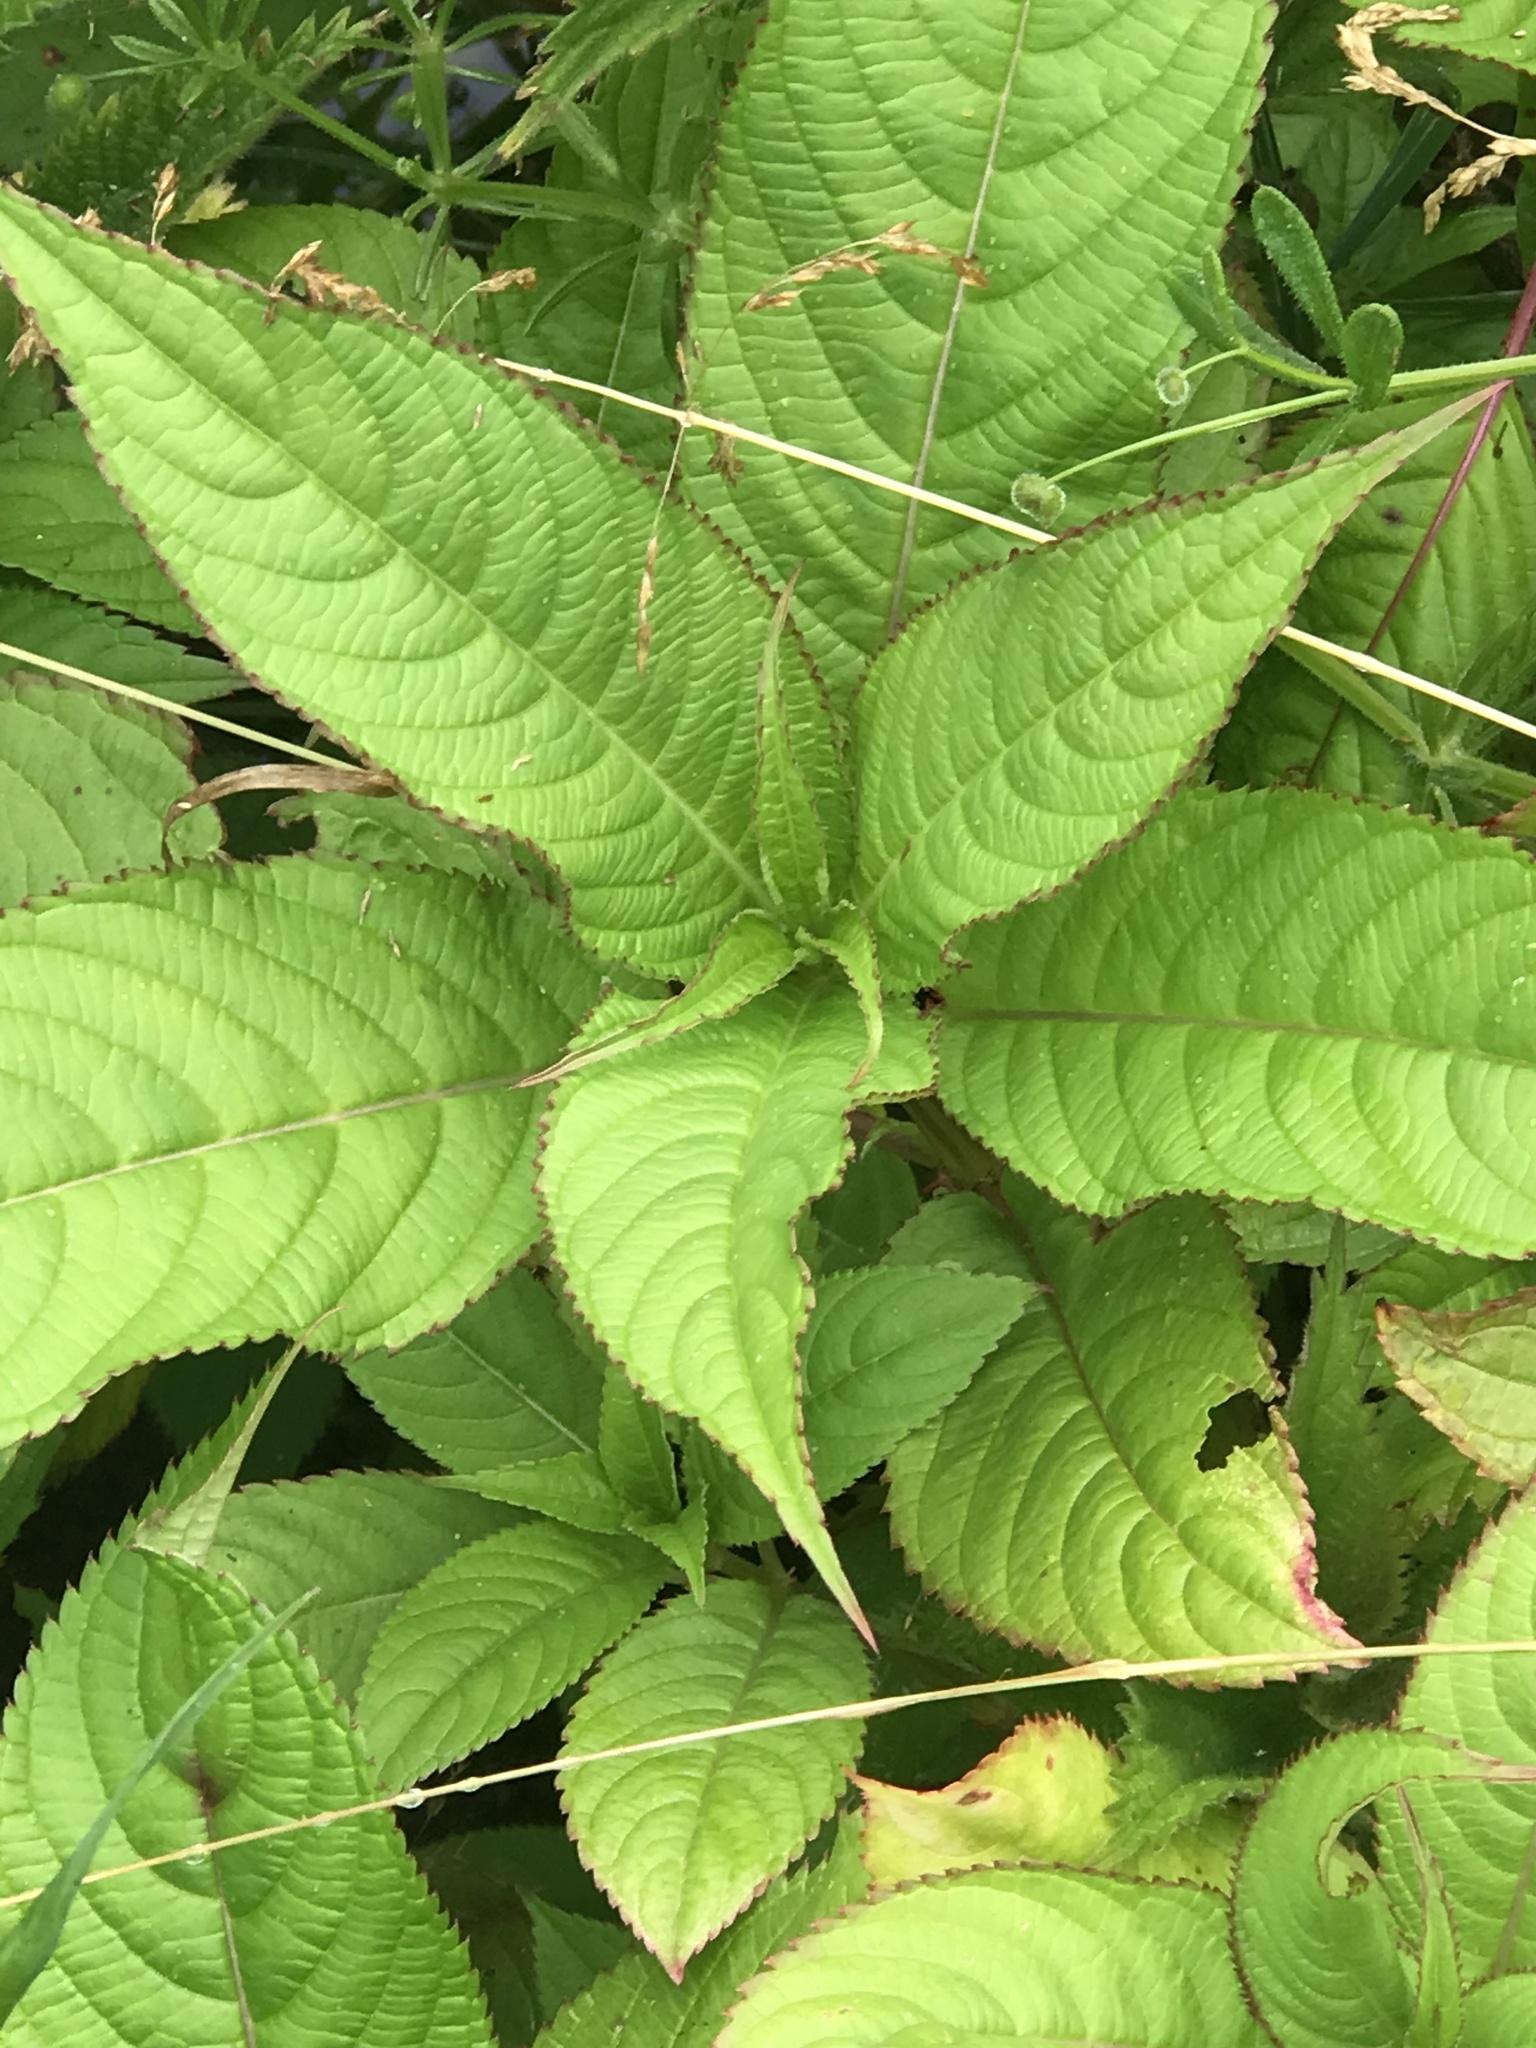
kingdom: Plantae
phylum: Tracheophyta
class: Magnoliopsida
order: Ericales
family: Balsaminaceae
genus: Impatiens
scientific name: Impatiens glandulifera
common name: Himalayan balsam
